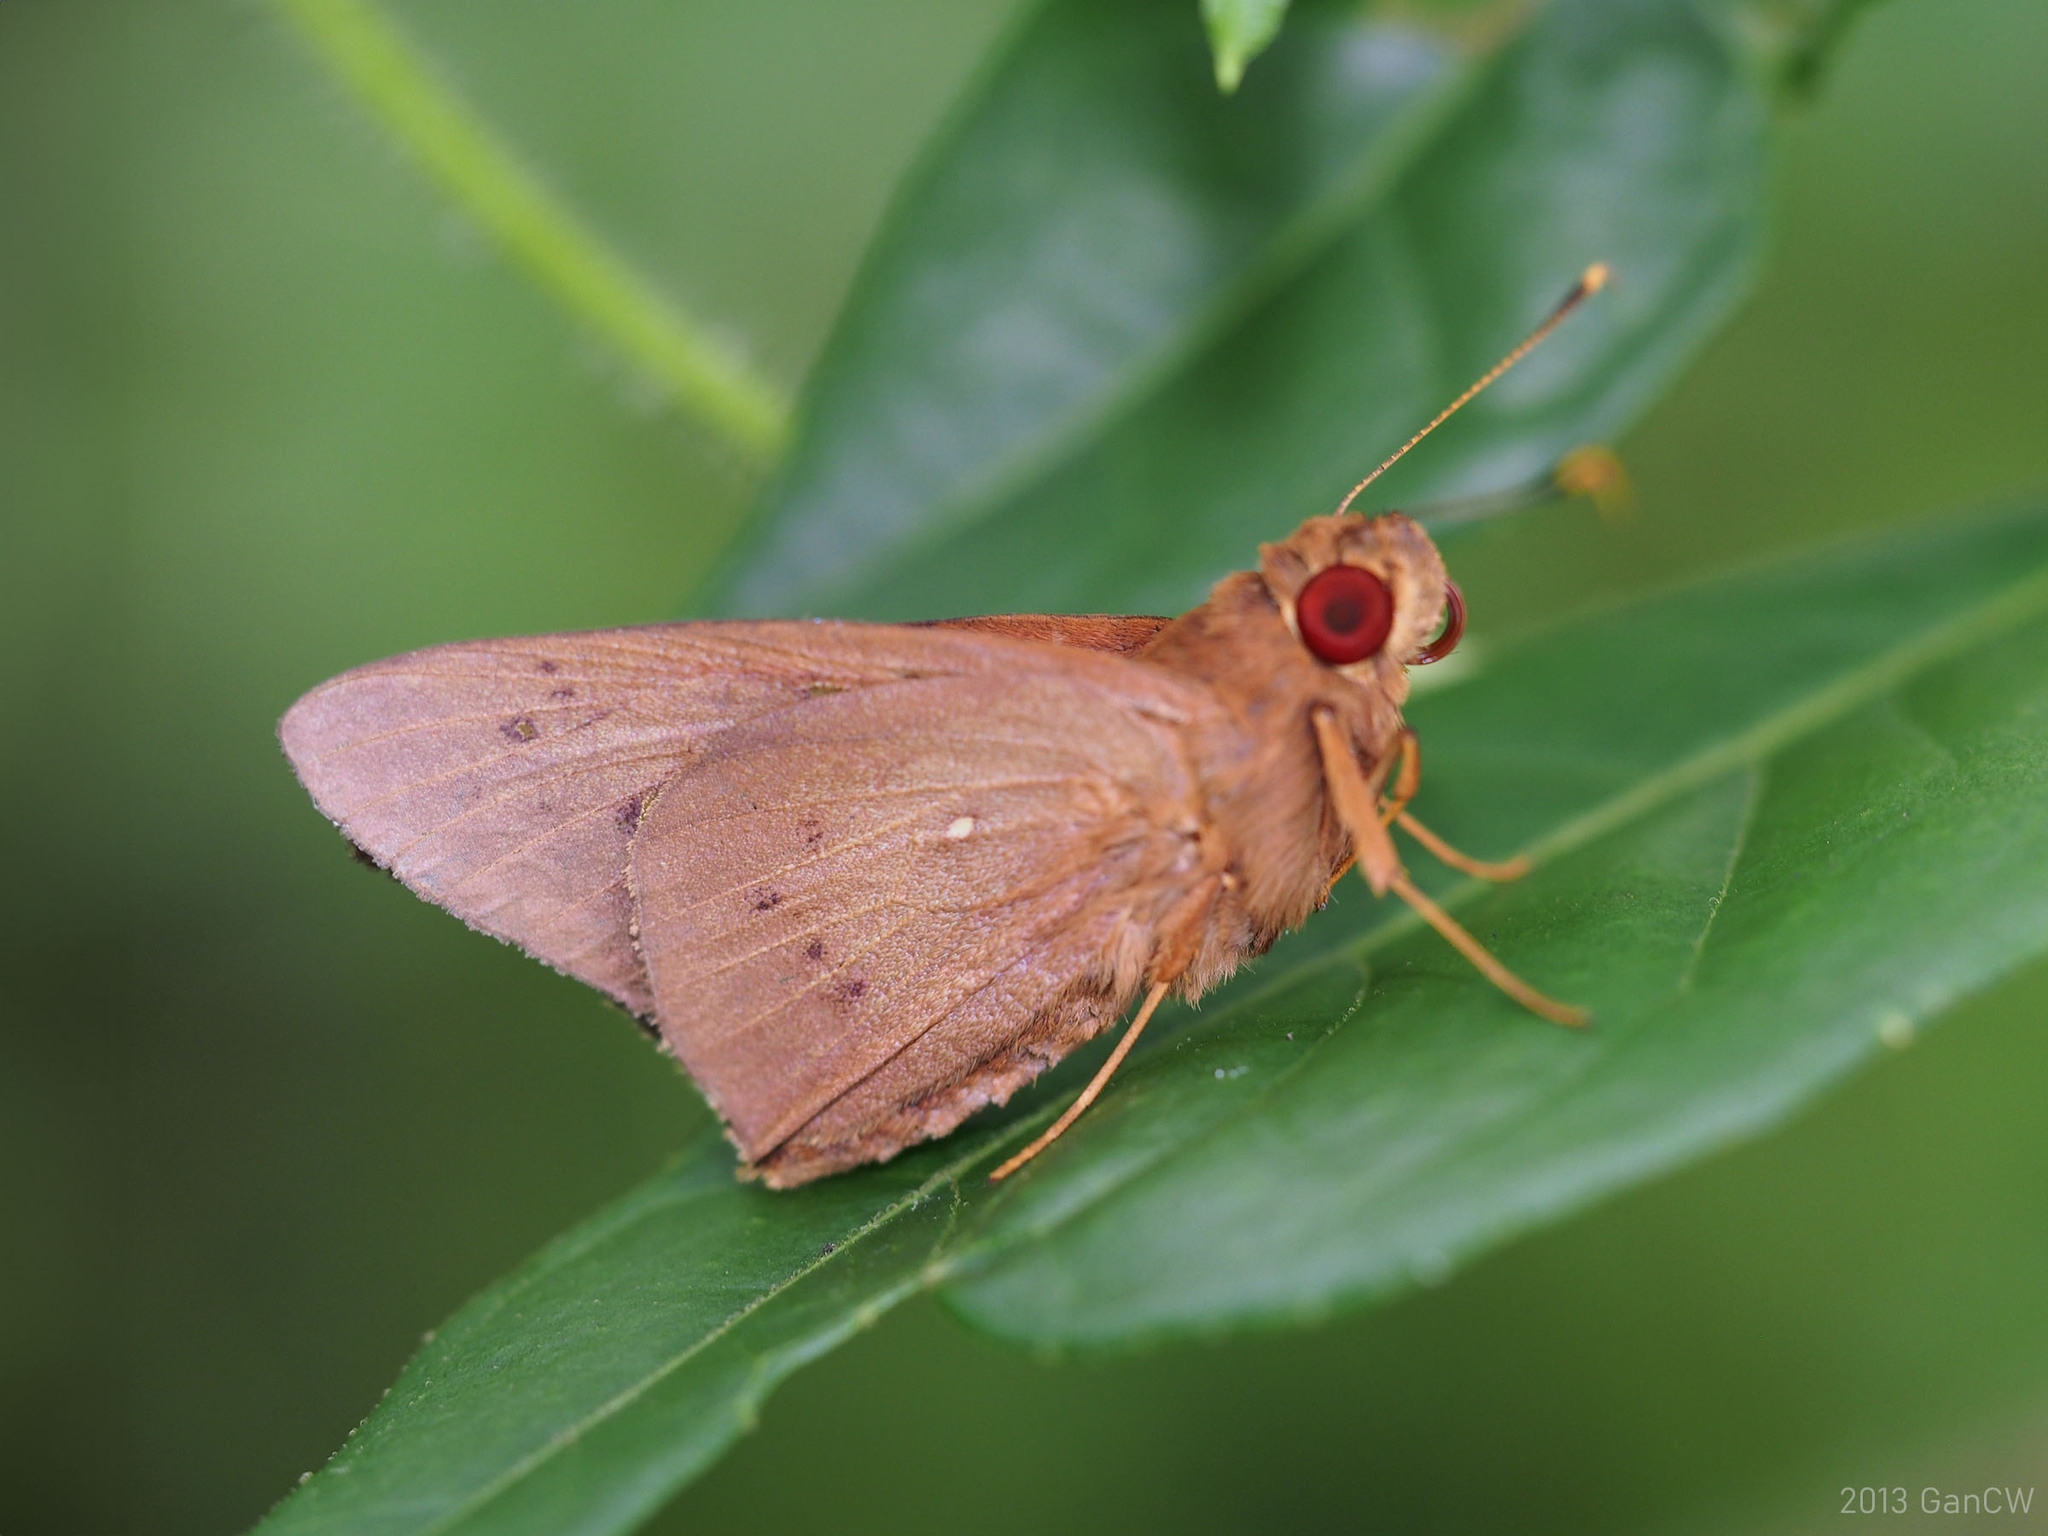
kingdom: Animalia
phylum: Arthropoda
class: Insecta
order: Lepidoptera
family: Hesperiidae
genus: Hidari
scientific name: Hidari irava
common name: Coconut skipper
